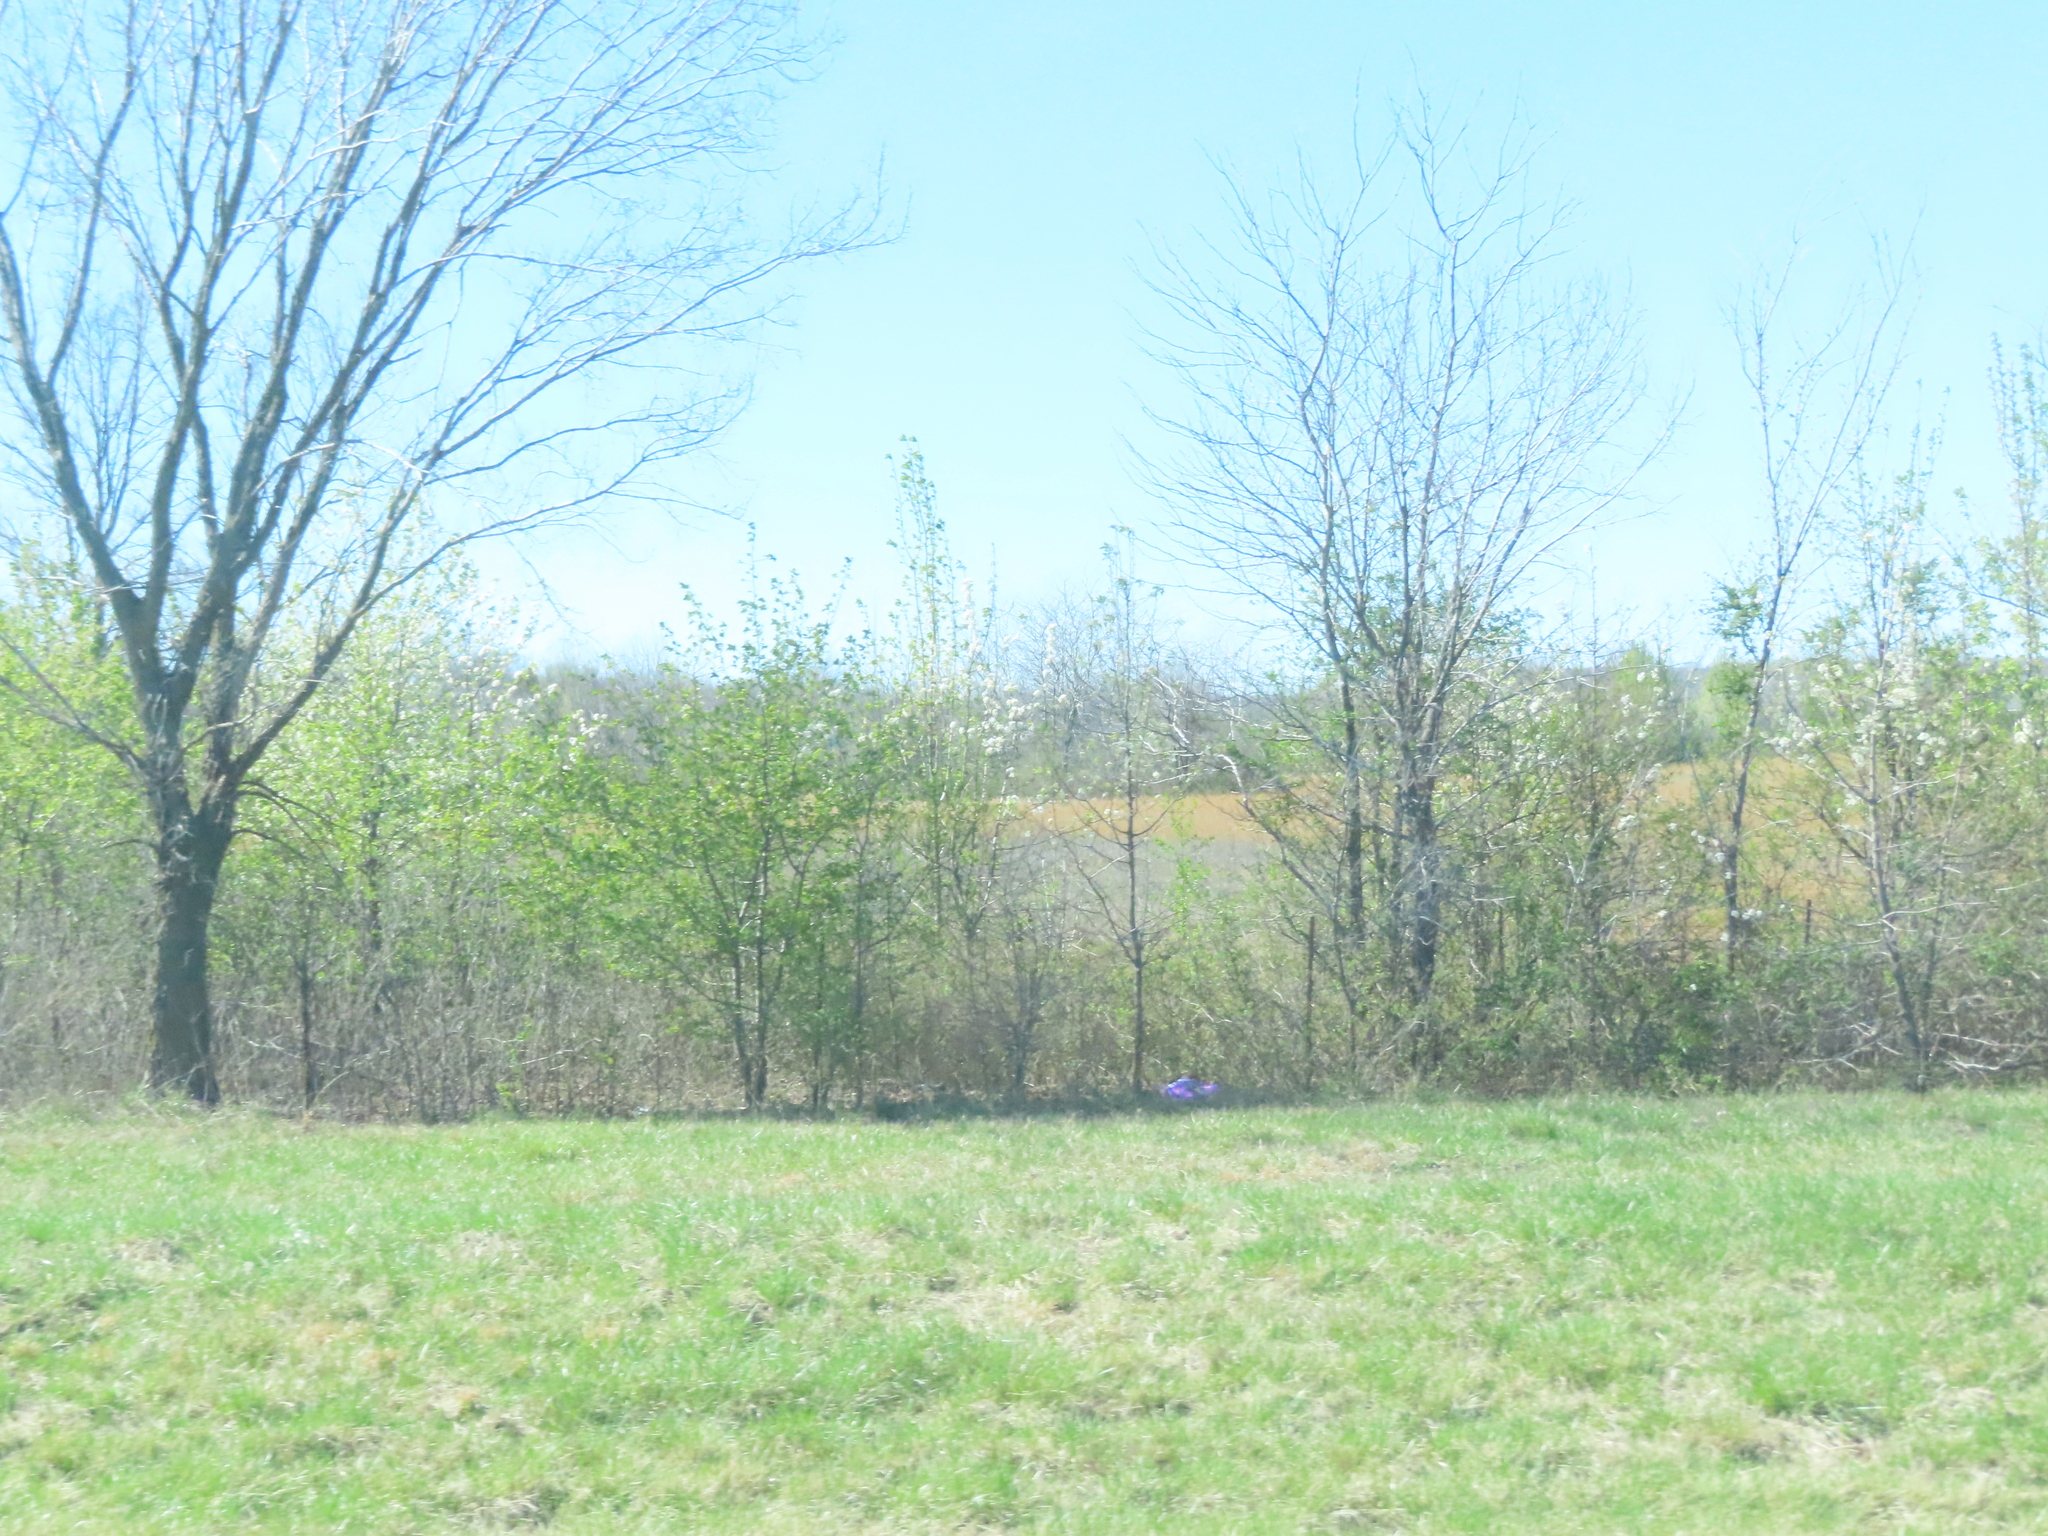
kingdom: Plantae
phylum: Tracheophyta
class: Magnoliopsida
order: Rosales
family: Rosaceae
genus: Pyrus
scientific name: Pyrus calleryana
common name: Callery pear
